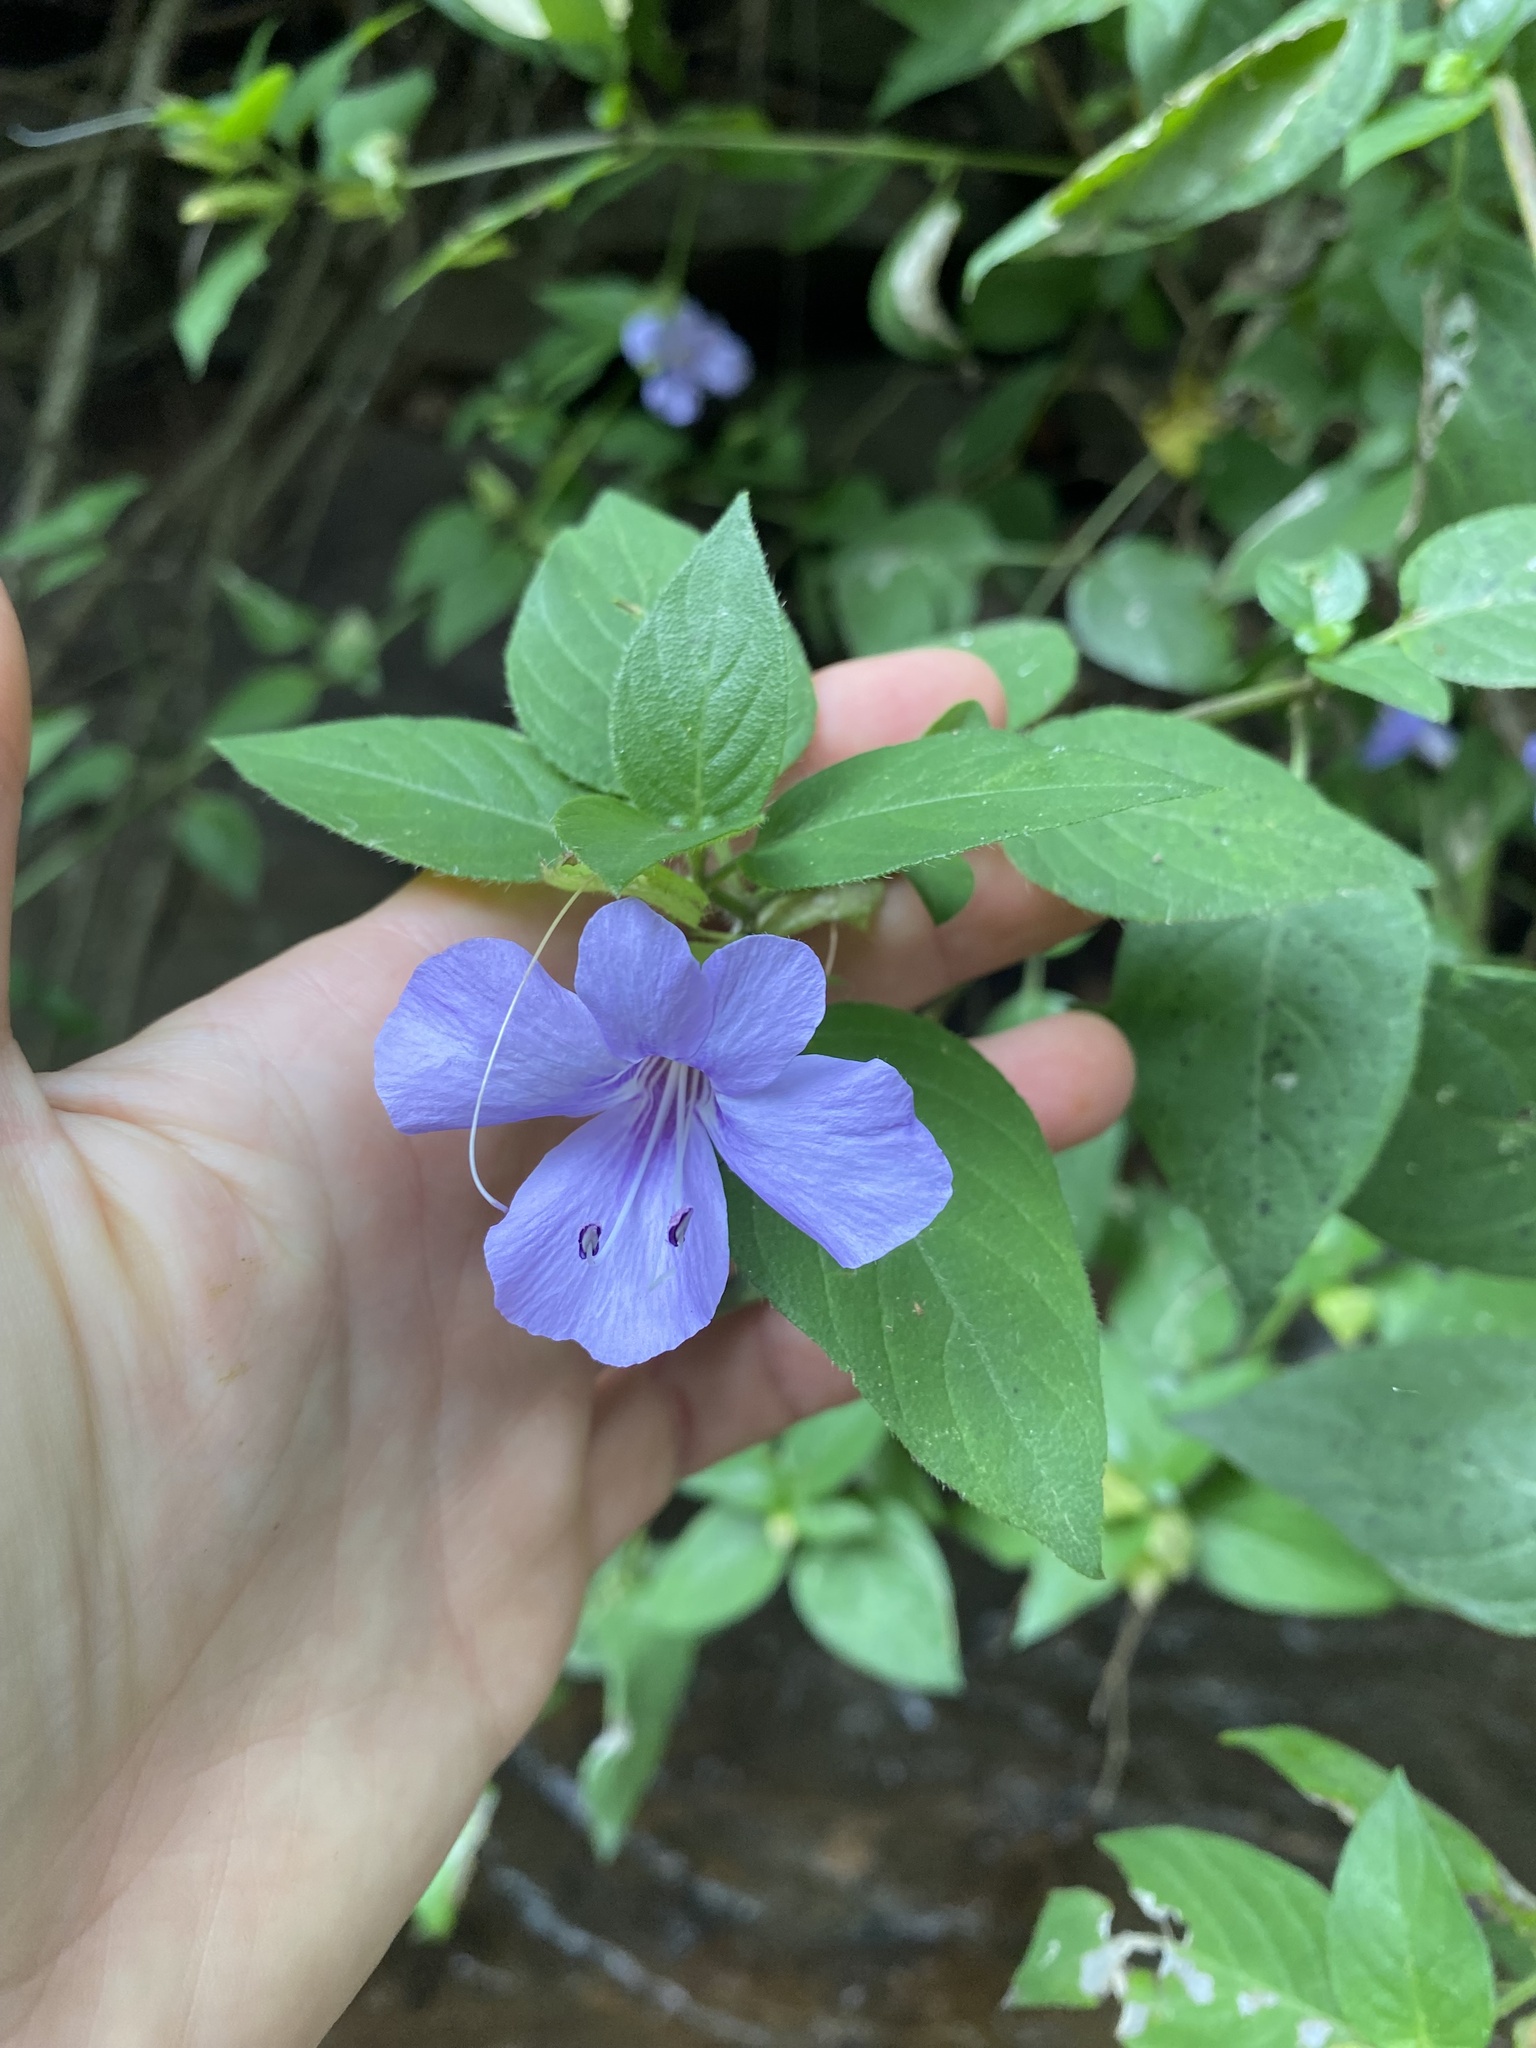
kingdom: Plantae
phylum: Tracheophyta
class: Magnoliopsida
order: Lamiales
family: Acanthaceae
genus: Barleria
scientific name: Barleria gueinzii
